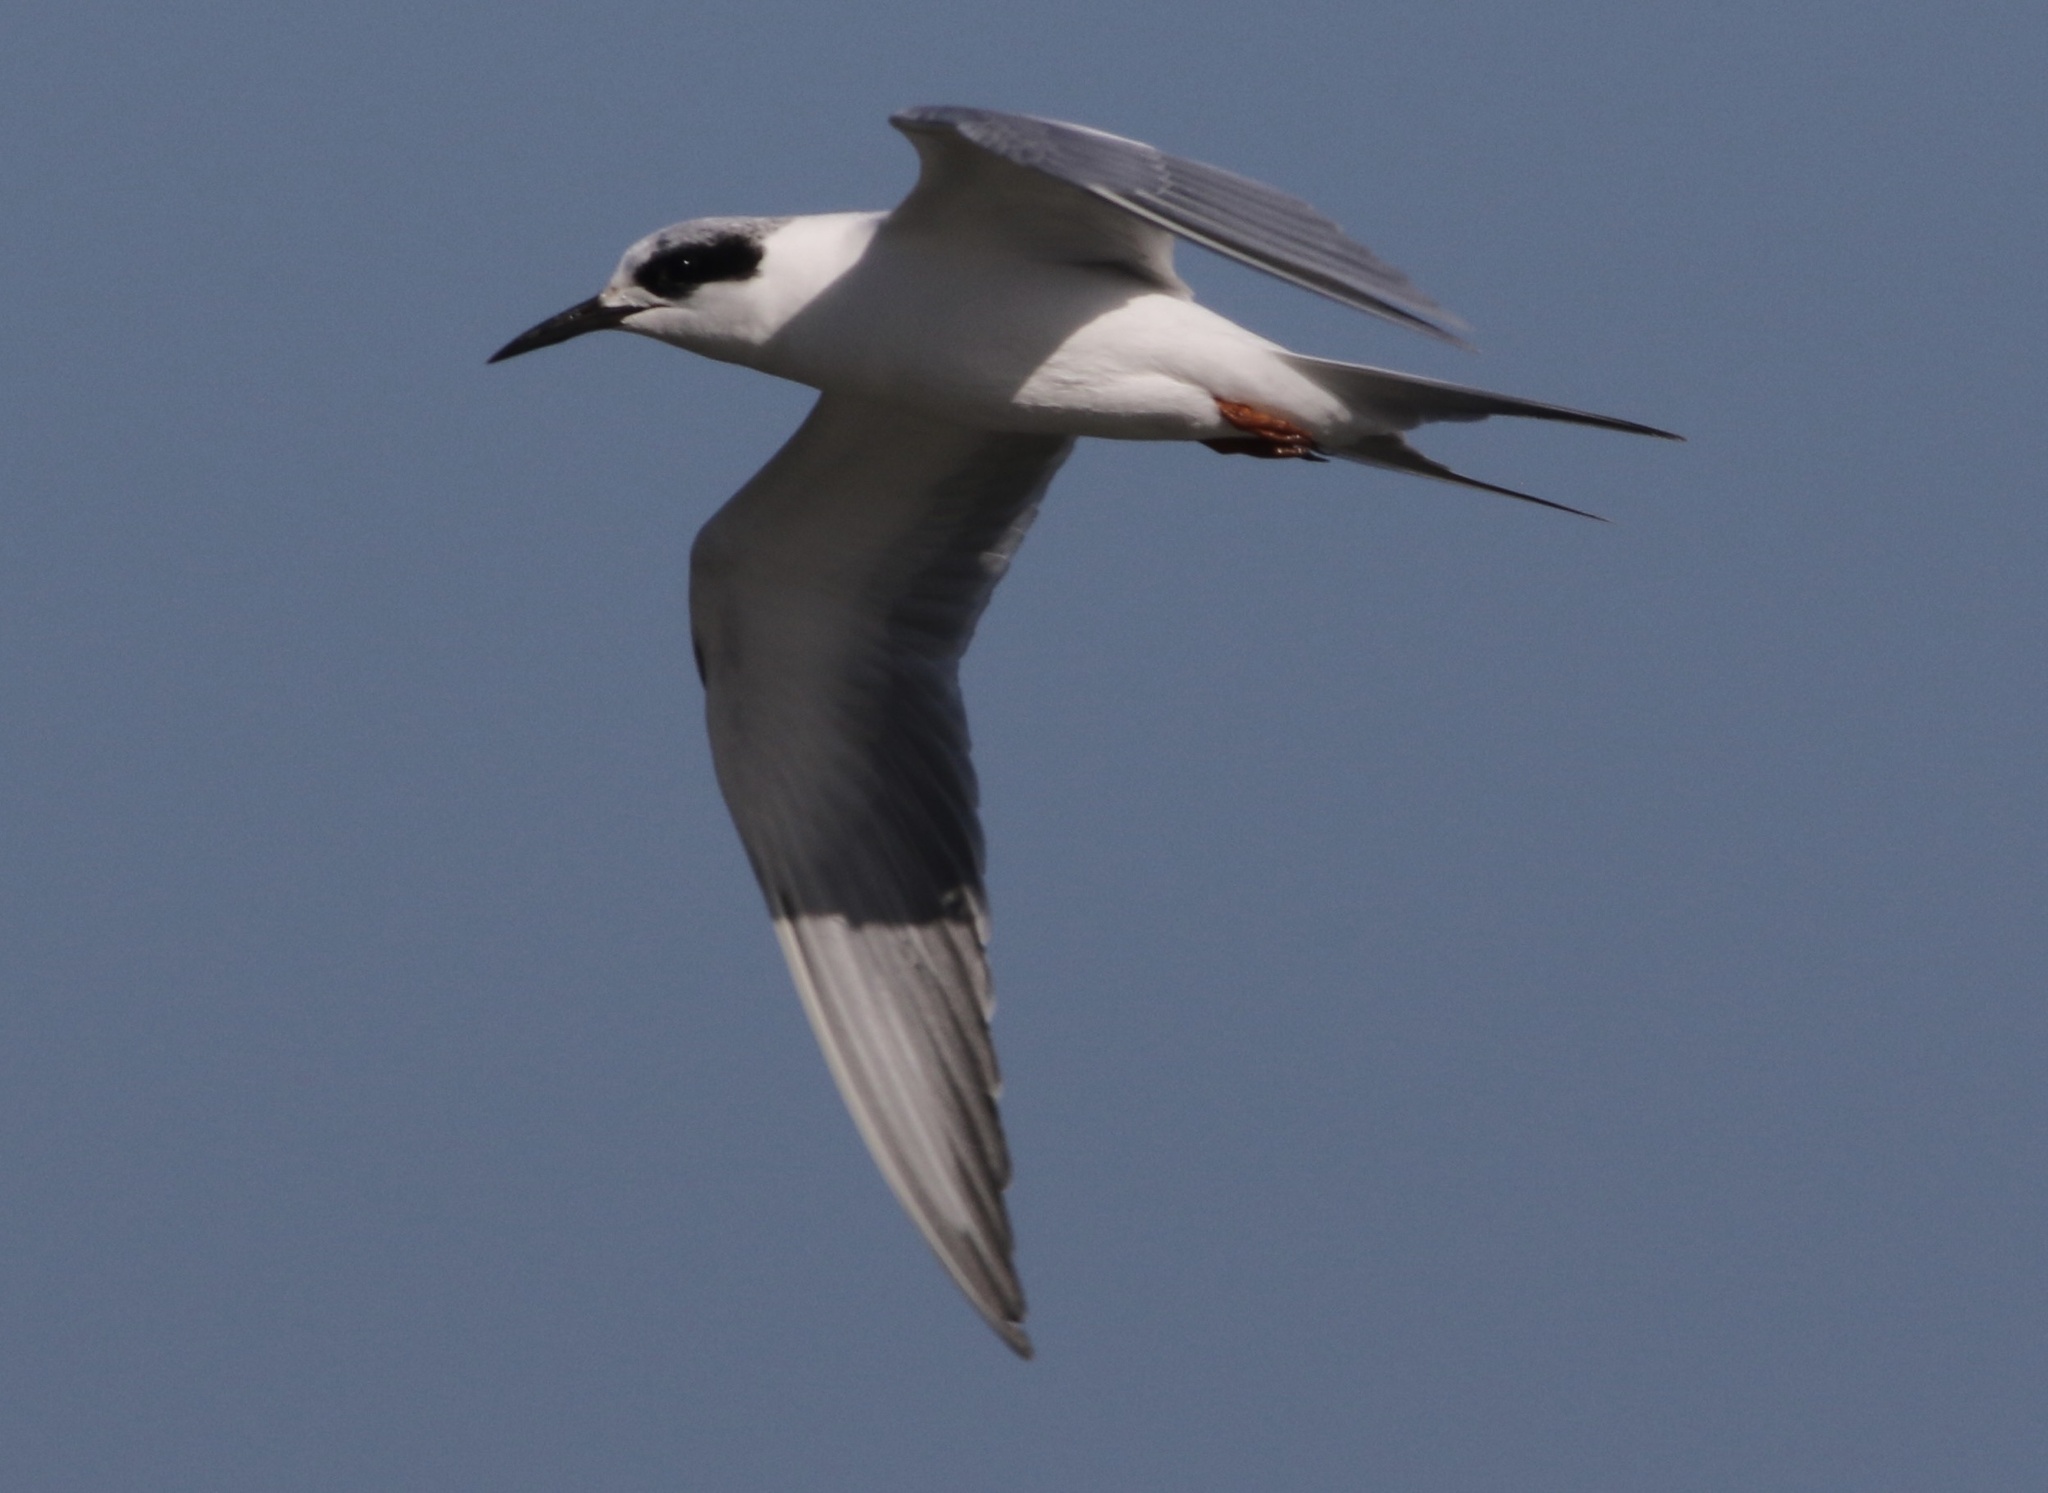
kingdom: Animalia
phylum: Chordata
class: Aves
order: Charadriiformes
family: Laridae
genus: Sterna
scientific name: Sterna forsteri
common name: Forster's tern
